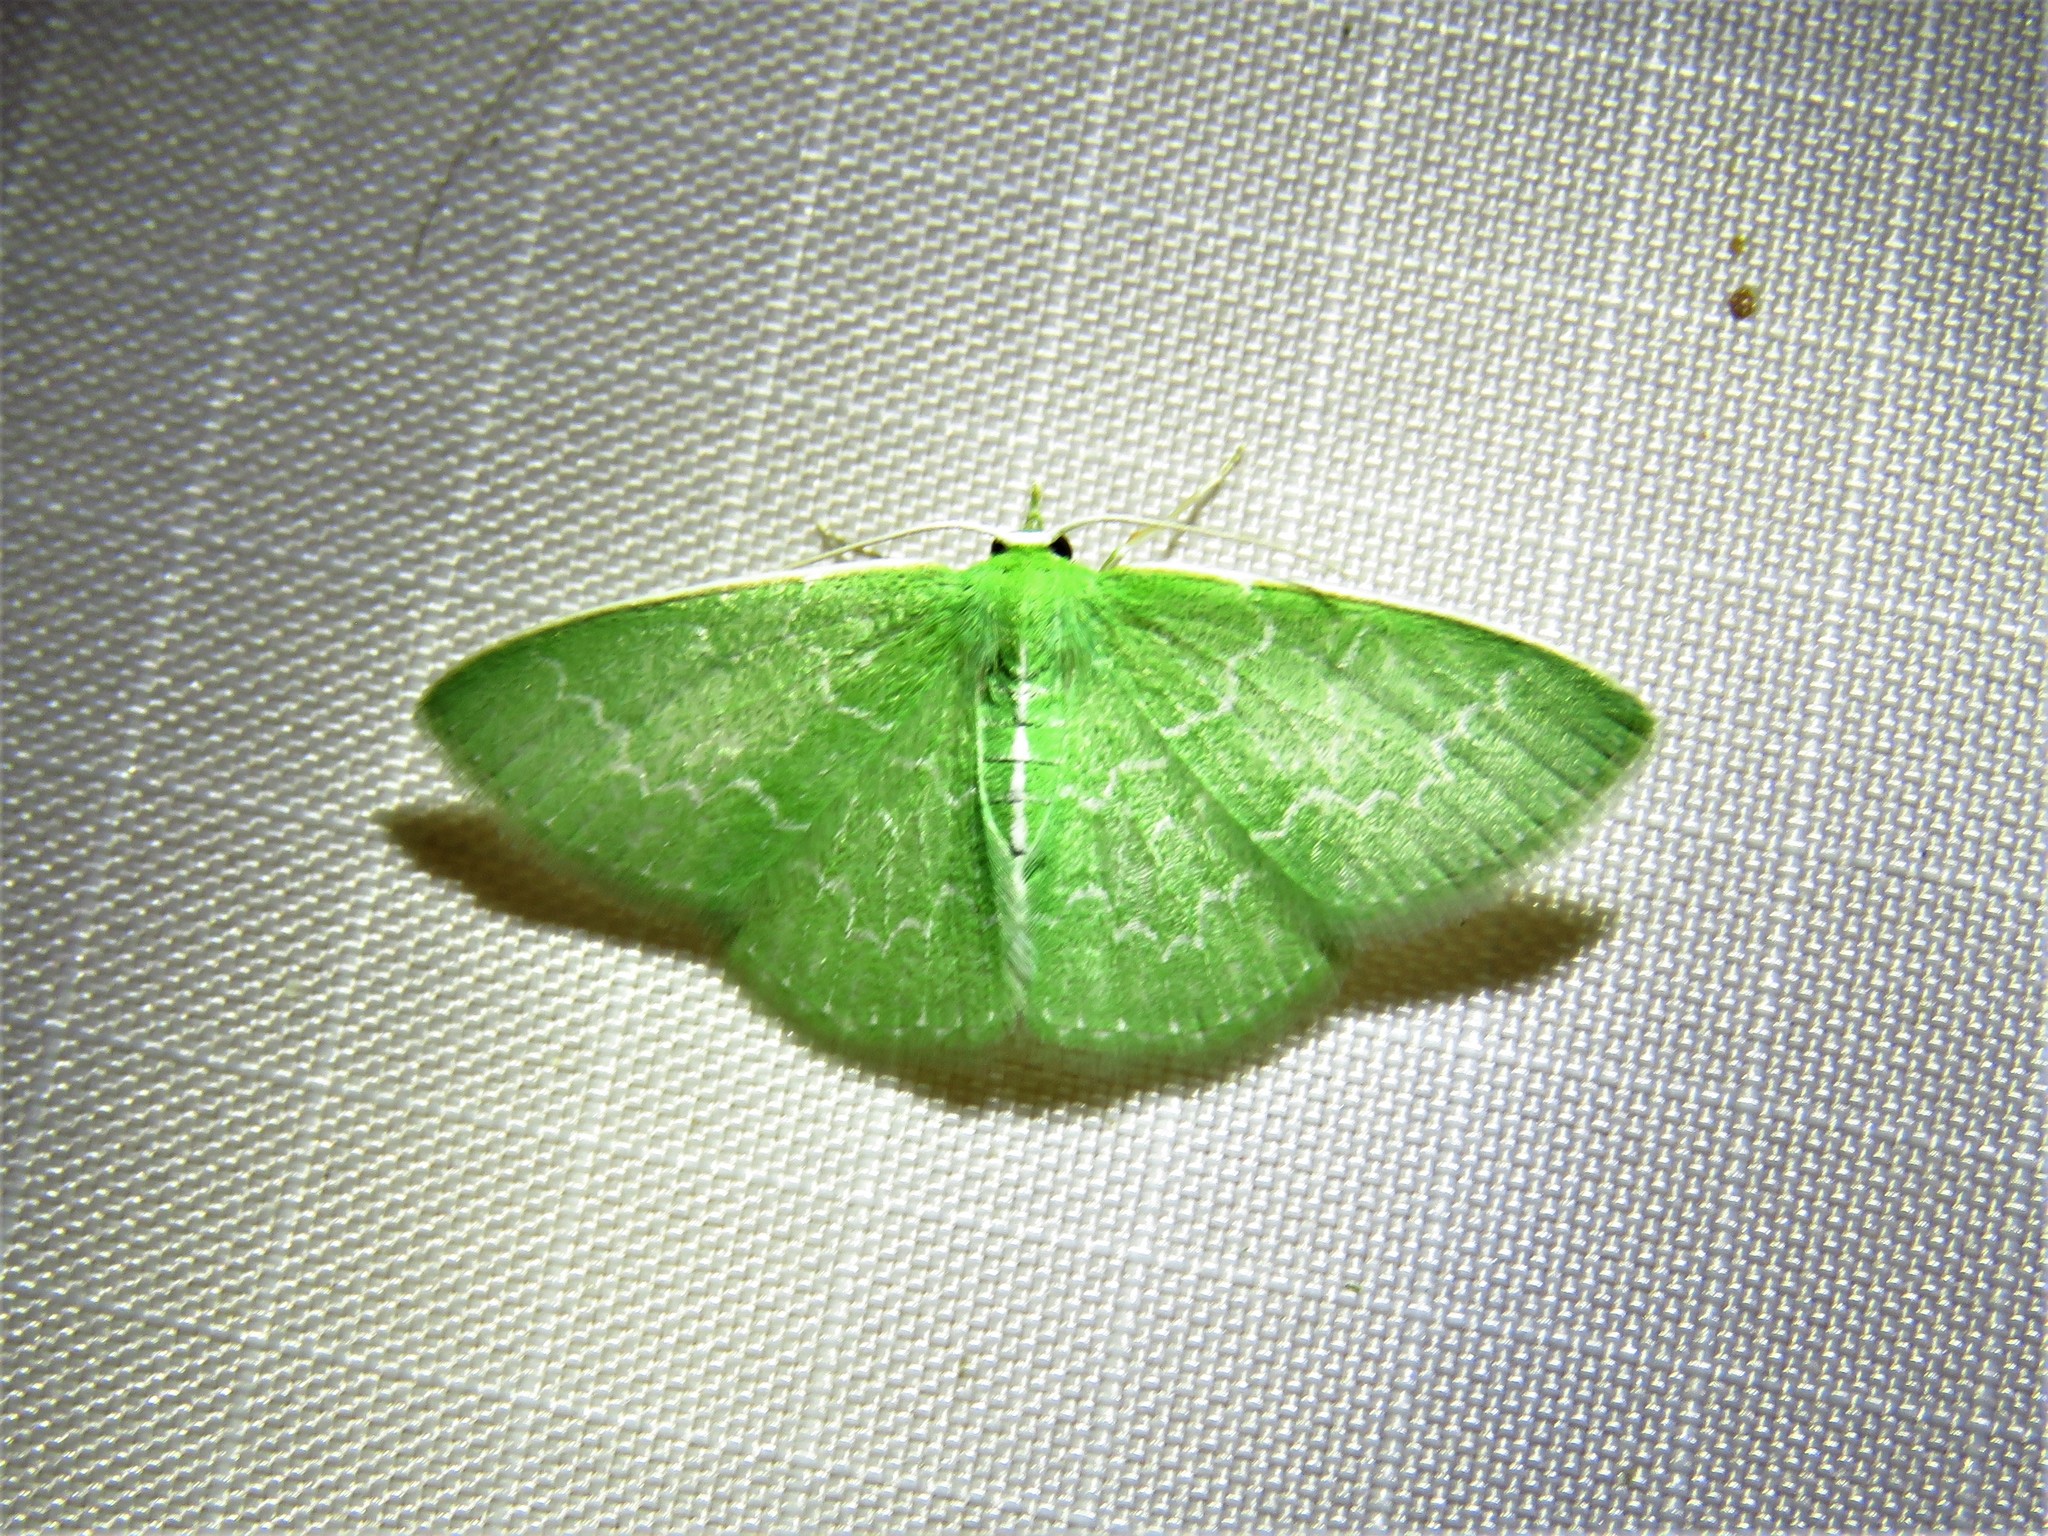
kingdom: Animalia
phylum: Arthropoda
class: Insecta
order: Lepidoptera
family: Geometridae
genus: Synchlora
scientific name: Synchlora frondaria
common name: Southern emerald
